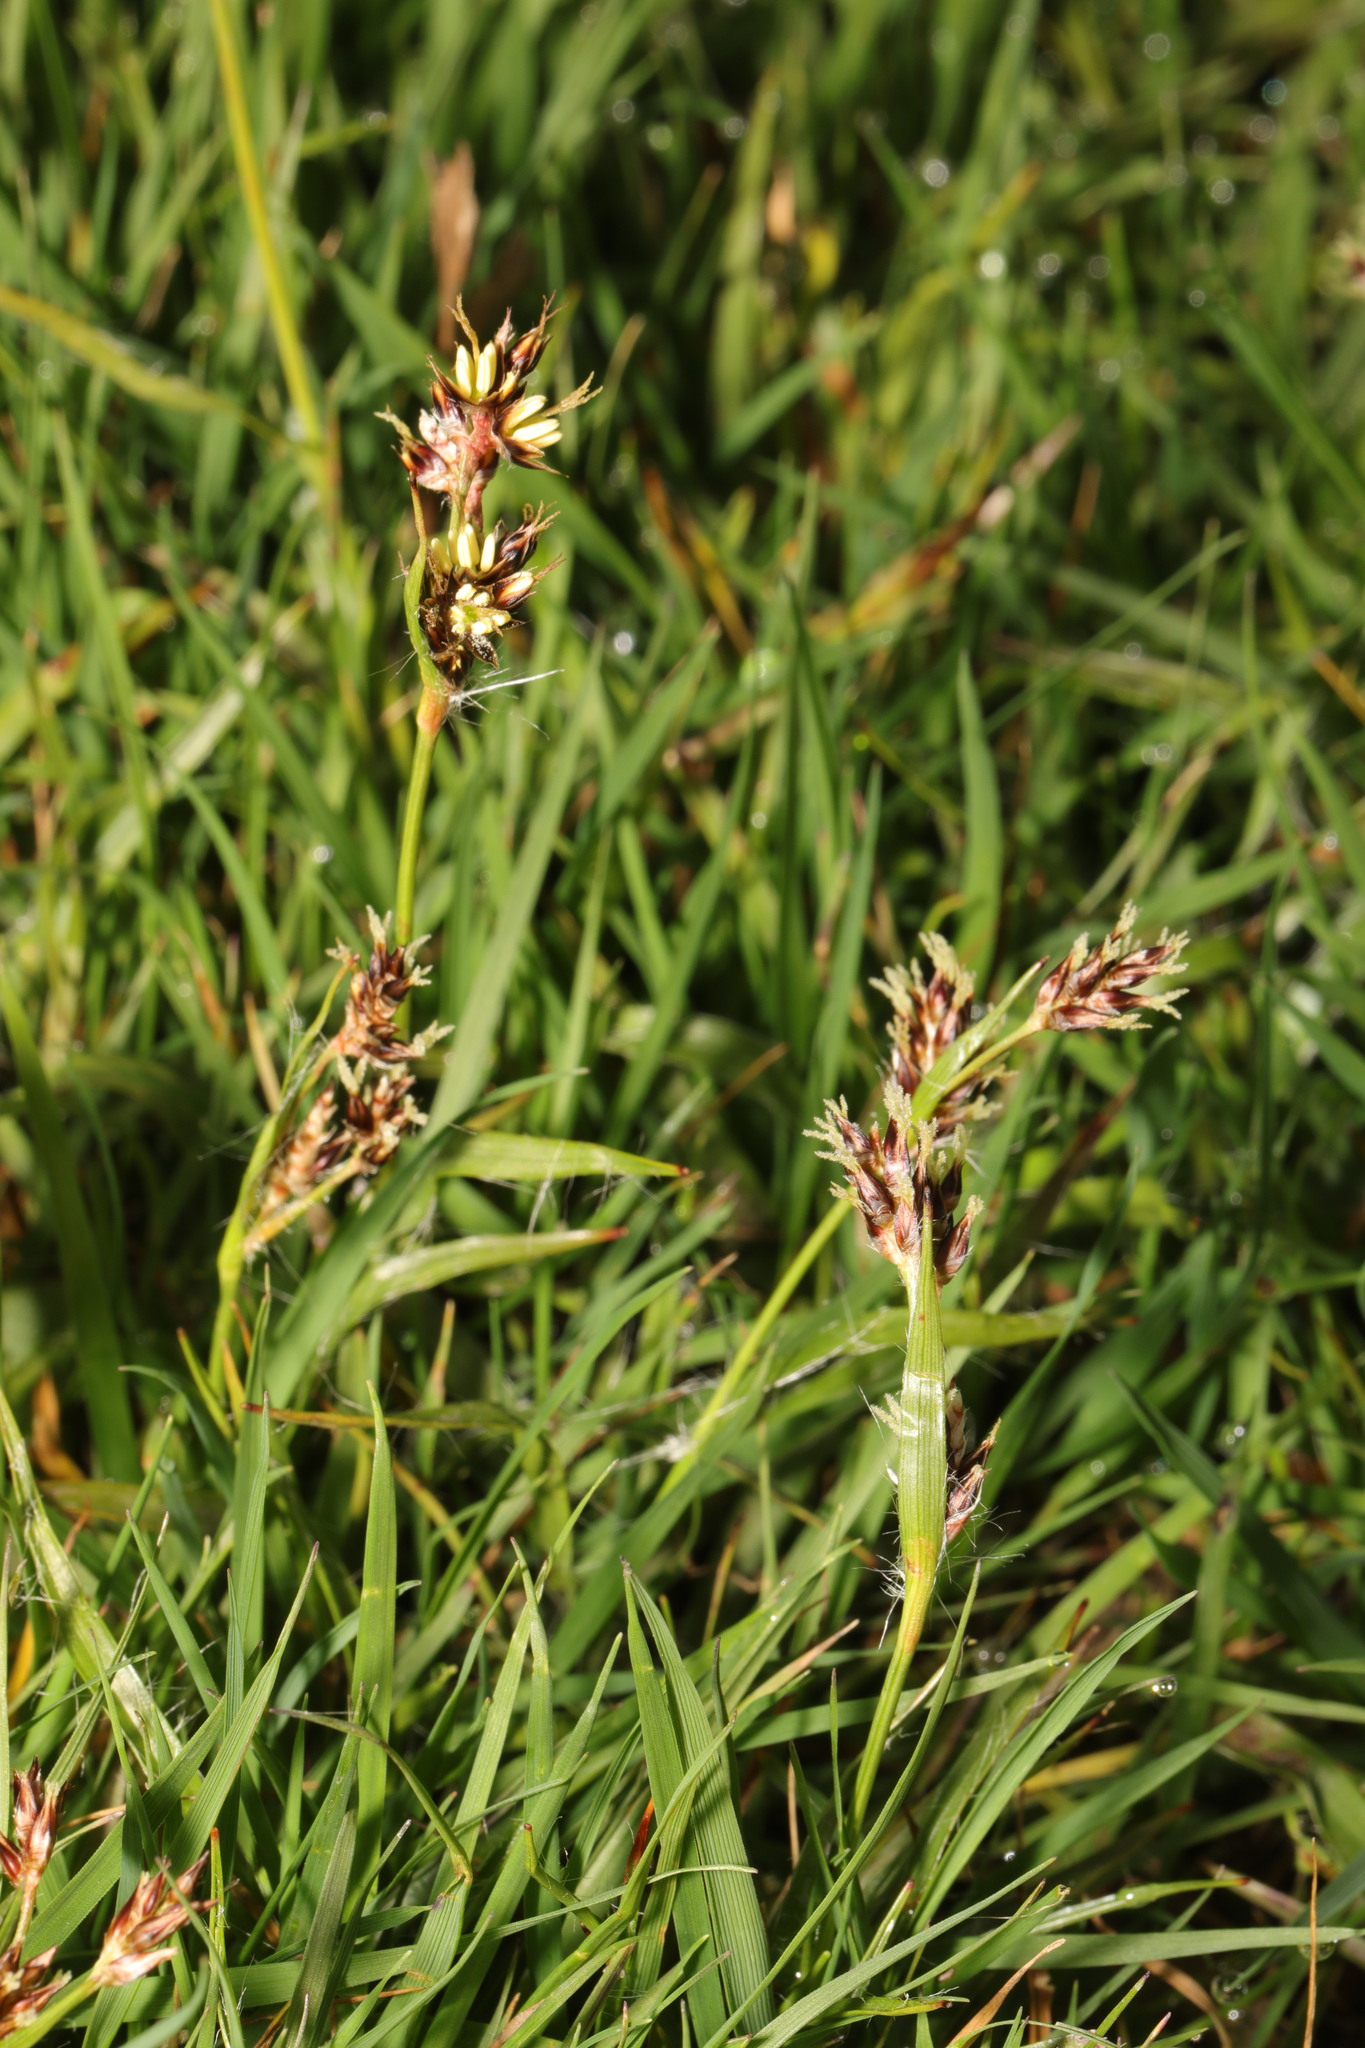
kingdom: Plantae
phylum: Tracheophyta
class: Liliopsida
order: Poales
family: Juncaceae
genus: Luzula
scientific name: Luzula campestris
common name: Field wood-rush
